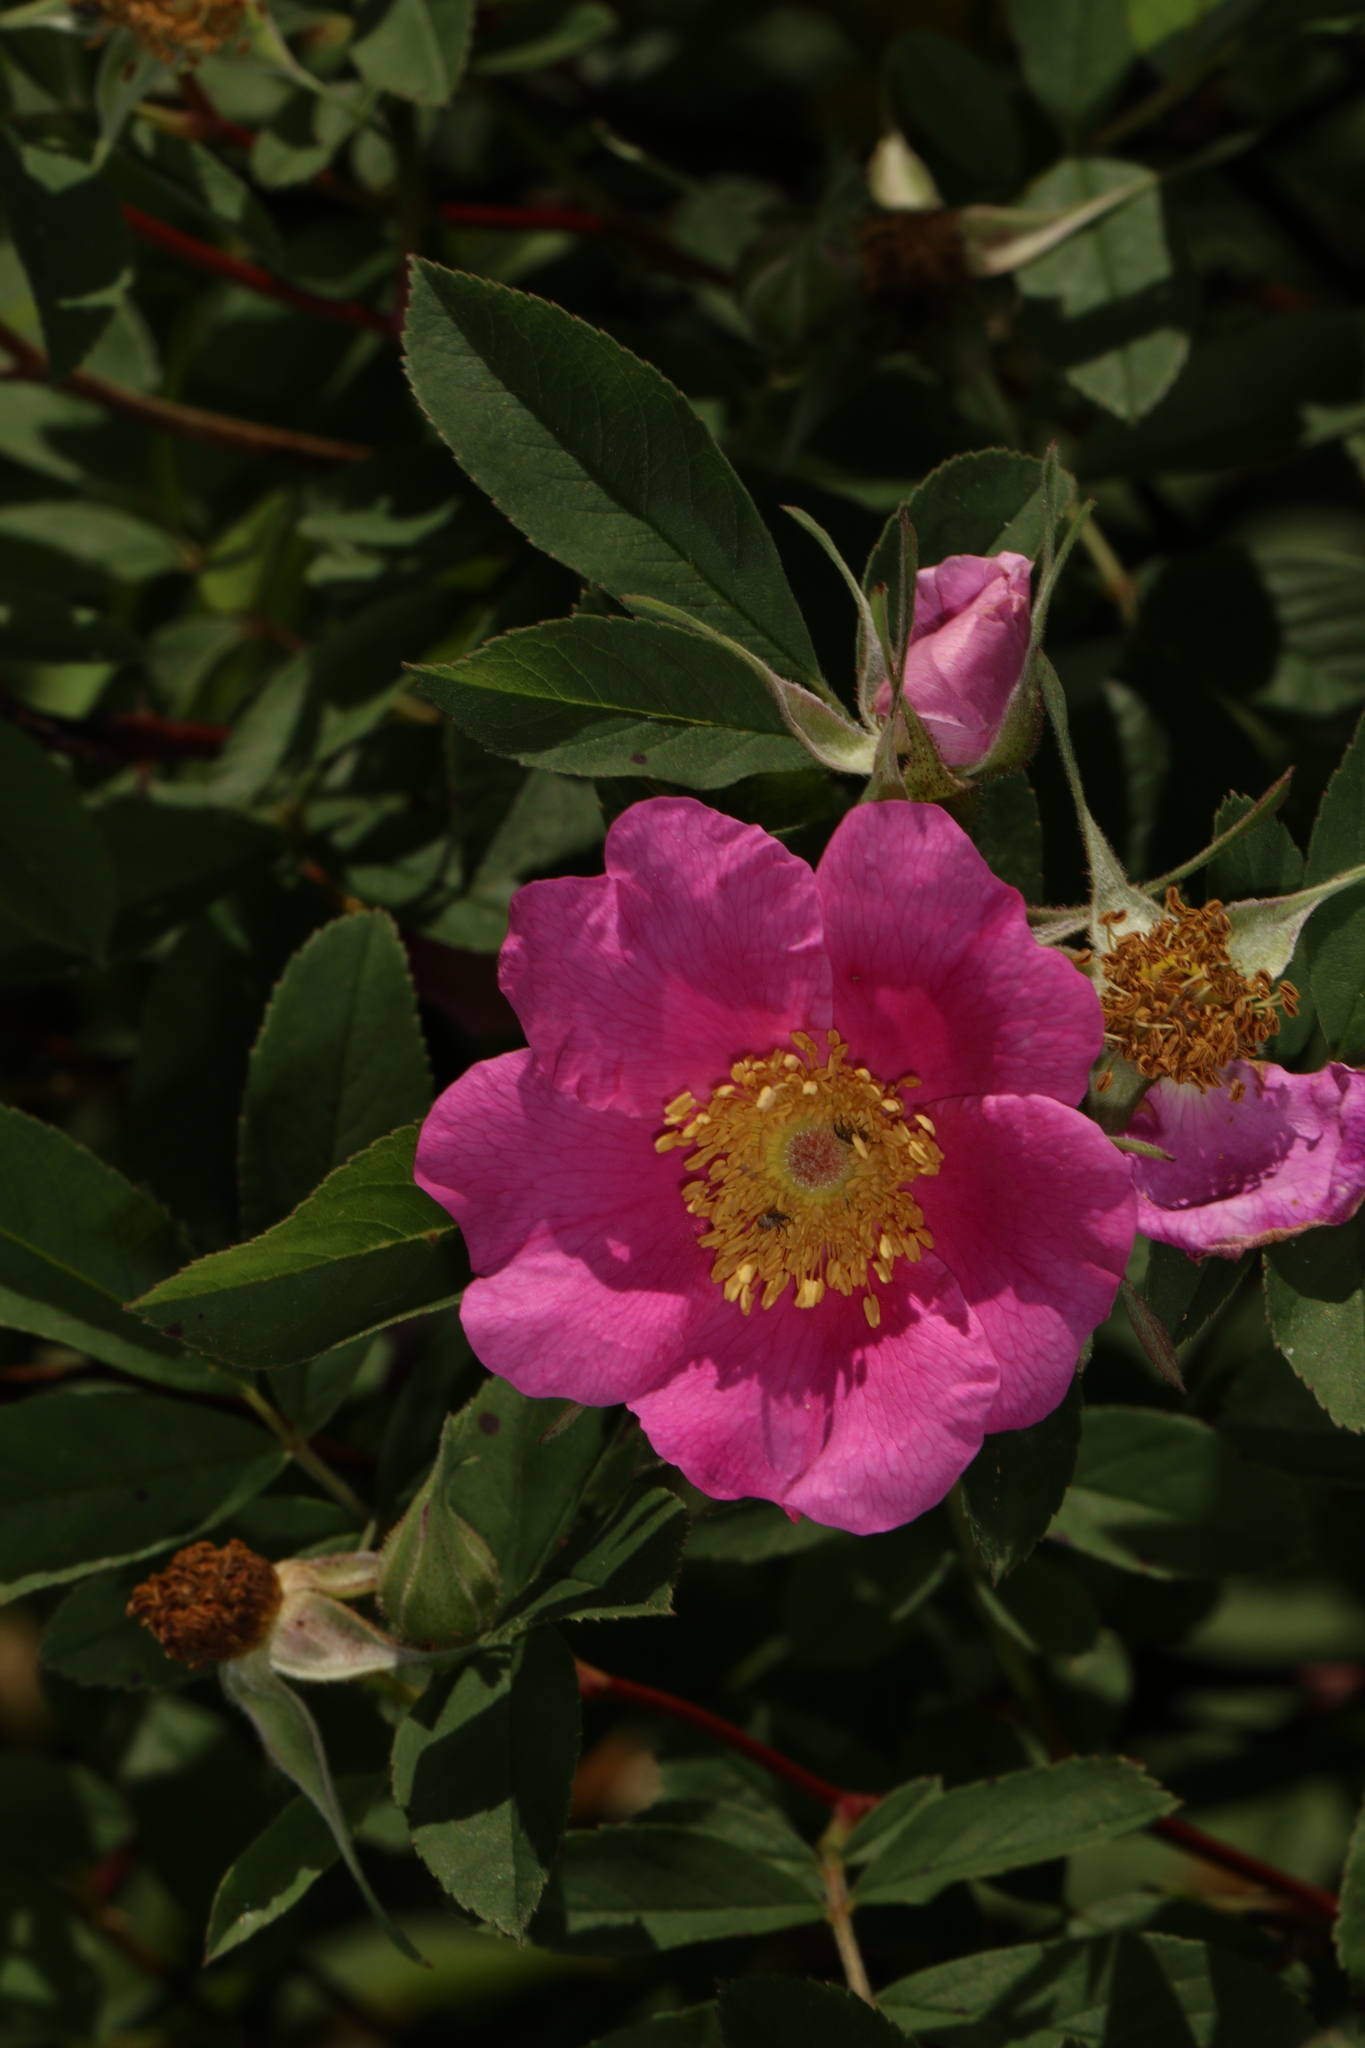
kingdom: Plantae
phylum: Tracheophyta
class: Magnoliopsida
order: Rosales
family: Rosaceae
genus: Rosa
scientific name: Rosa palustris
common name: Swamp rose
